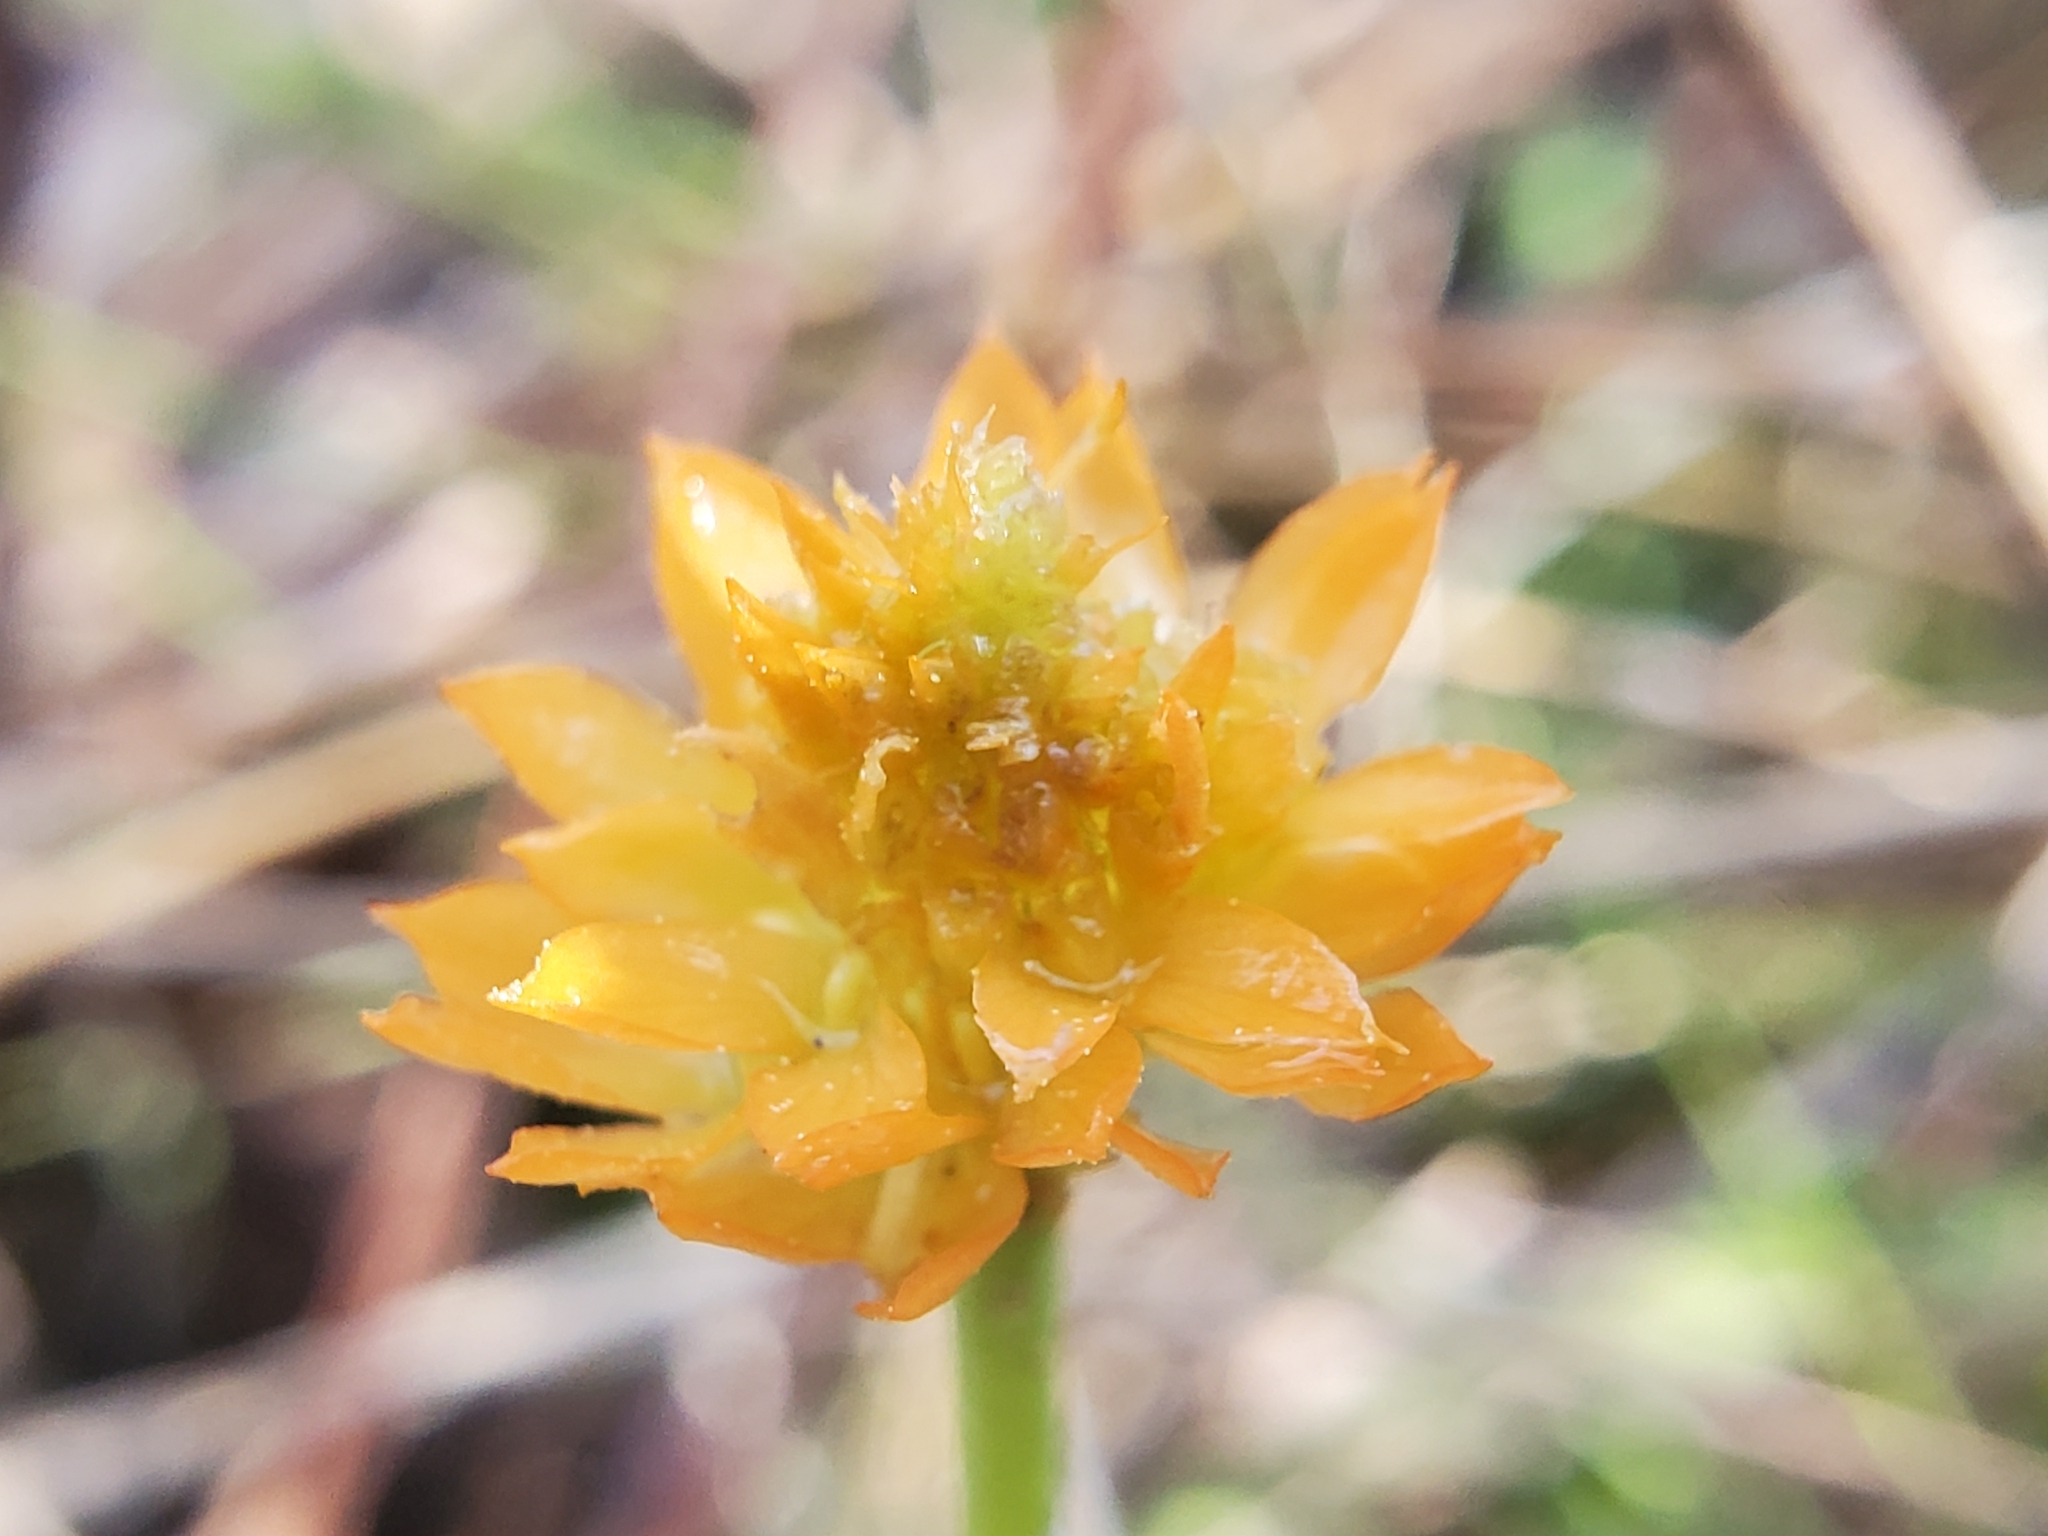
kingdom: Plantae
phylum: Tracheophyta
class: Magnoliopsida
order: Fabales
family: Polygalaceae
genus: Polygala
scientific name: Polygala lutea
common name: Orange milkwort
